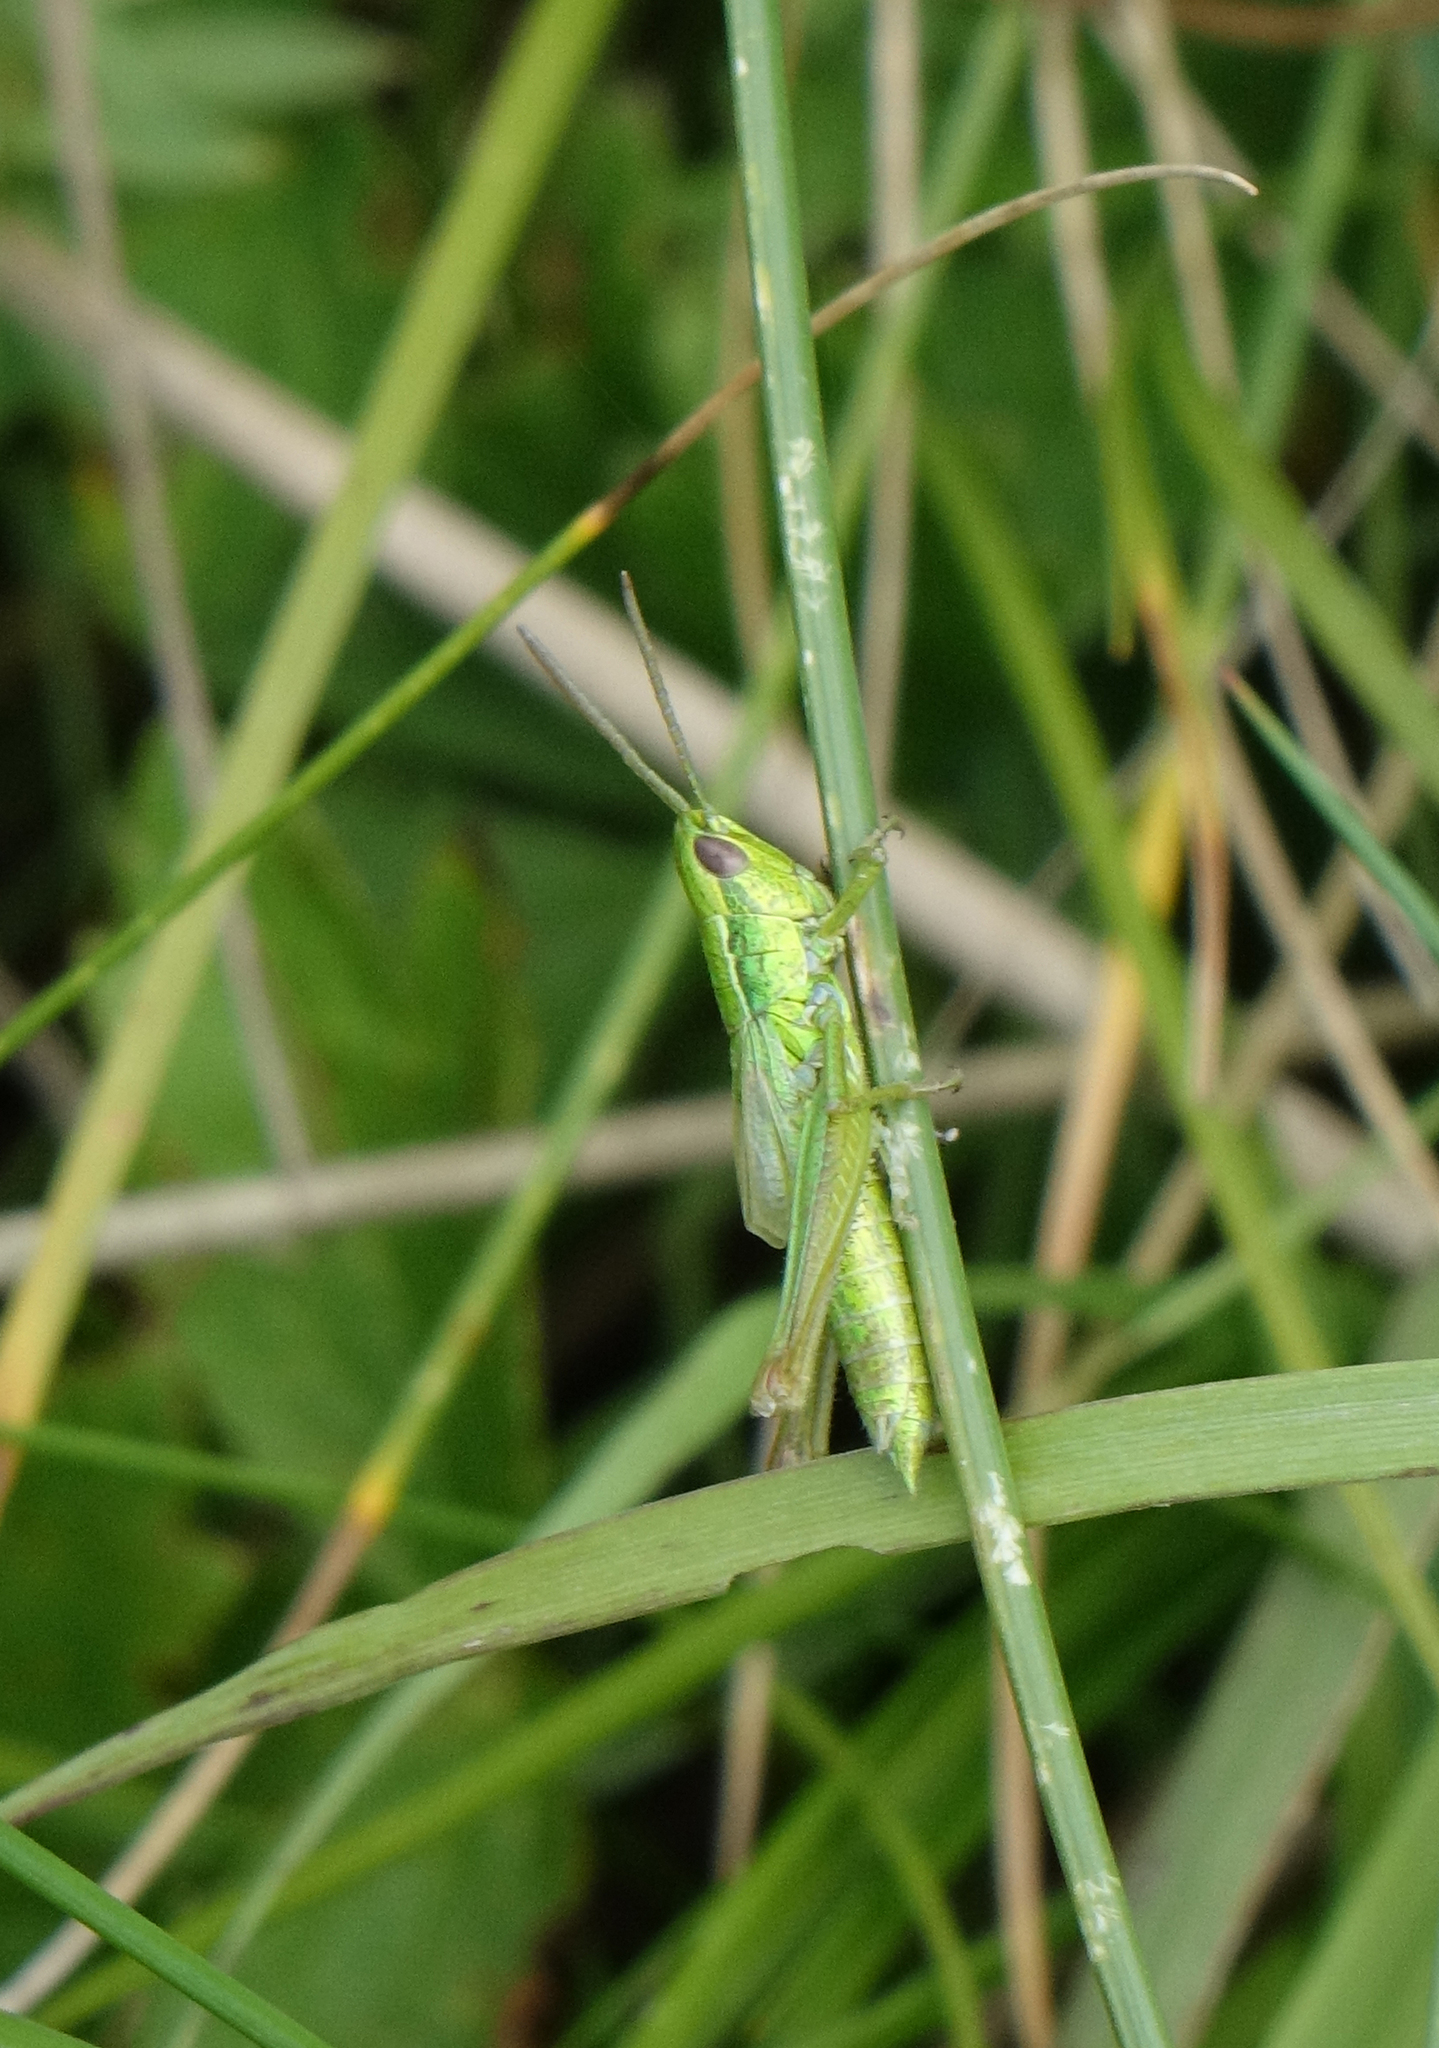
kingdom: Animalia
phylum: Arthropoda
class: Insecta
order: Orthoptera
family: Acrididae
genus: Euthystira
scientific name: Euthystira brachyptera
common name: Small gold grasshopper
